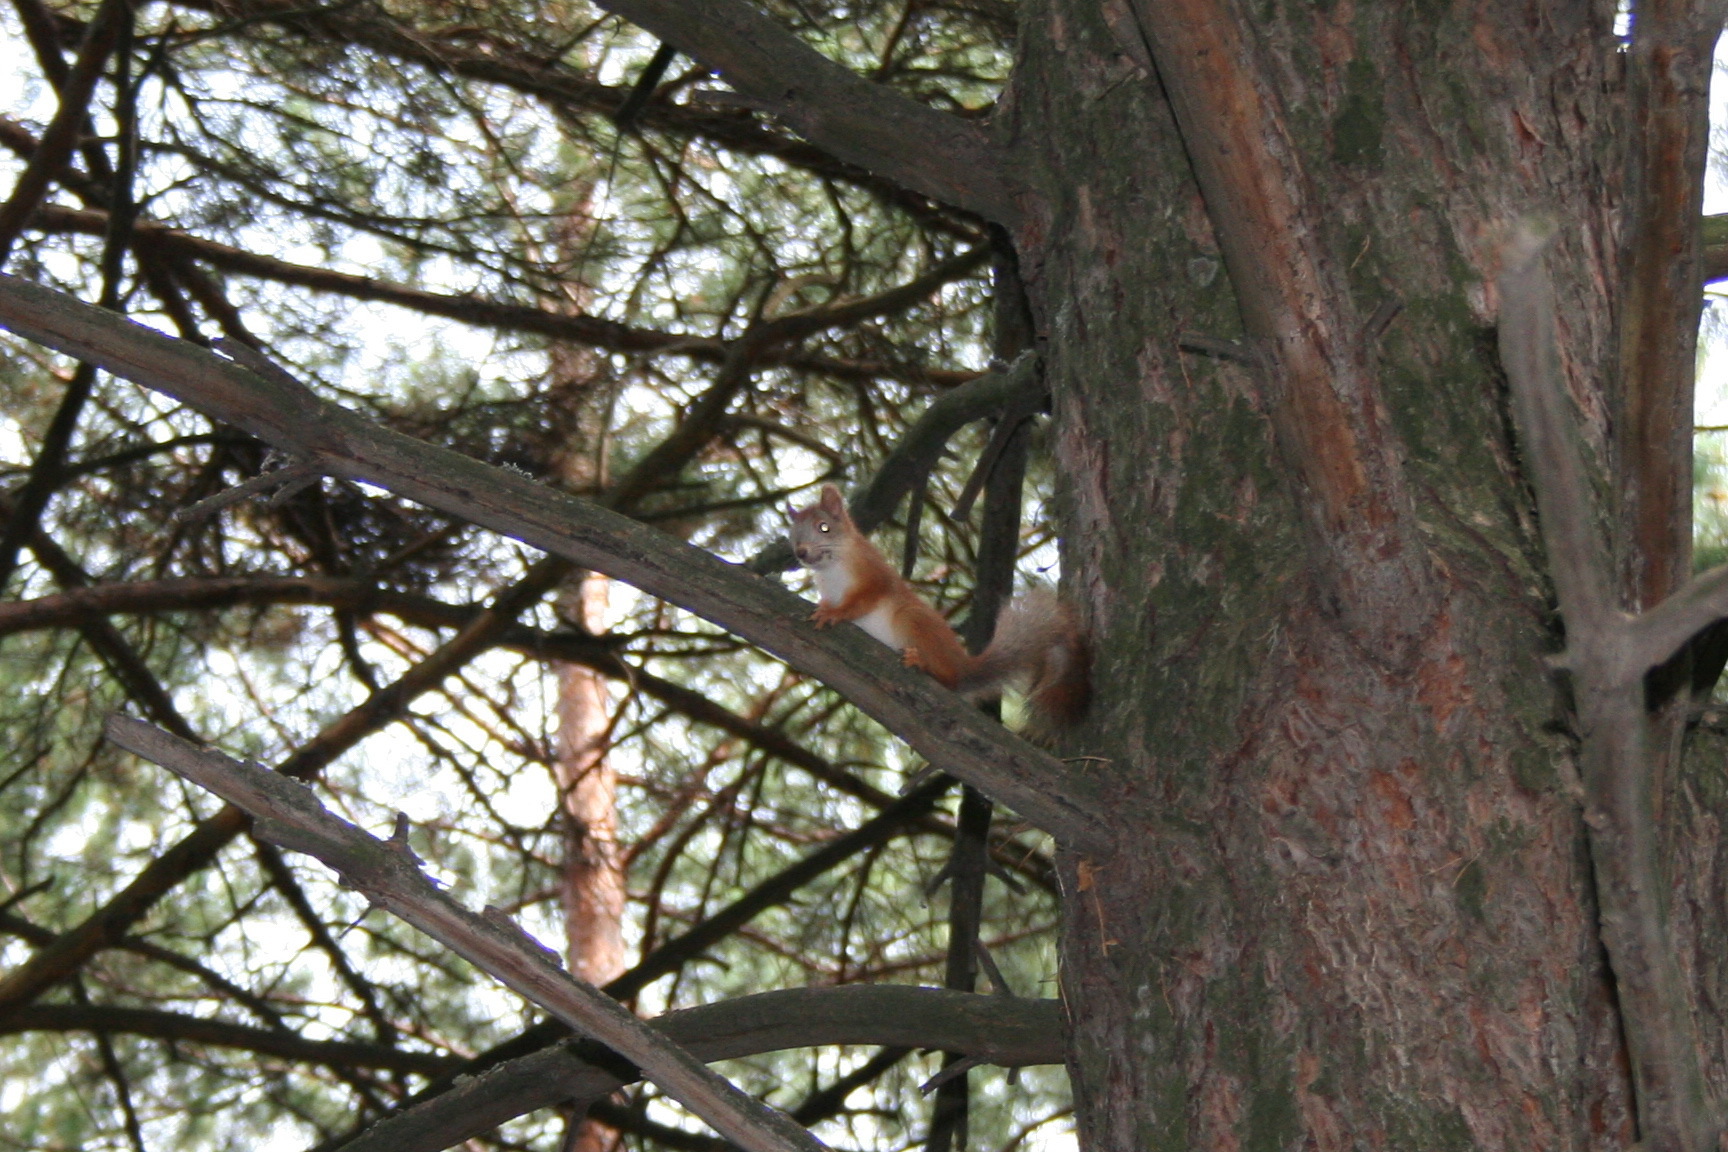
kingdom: Animalia
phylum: Chordata
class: Mammalia
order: Rodentia
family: Sciuridae
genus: Sciurus
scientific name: Sciurus vulgaris
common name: Eurasian red squirrel
